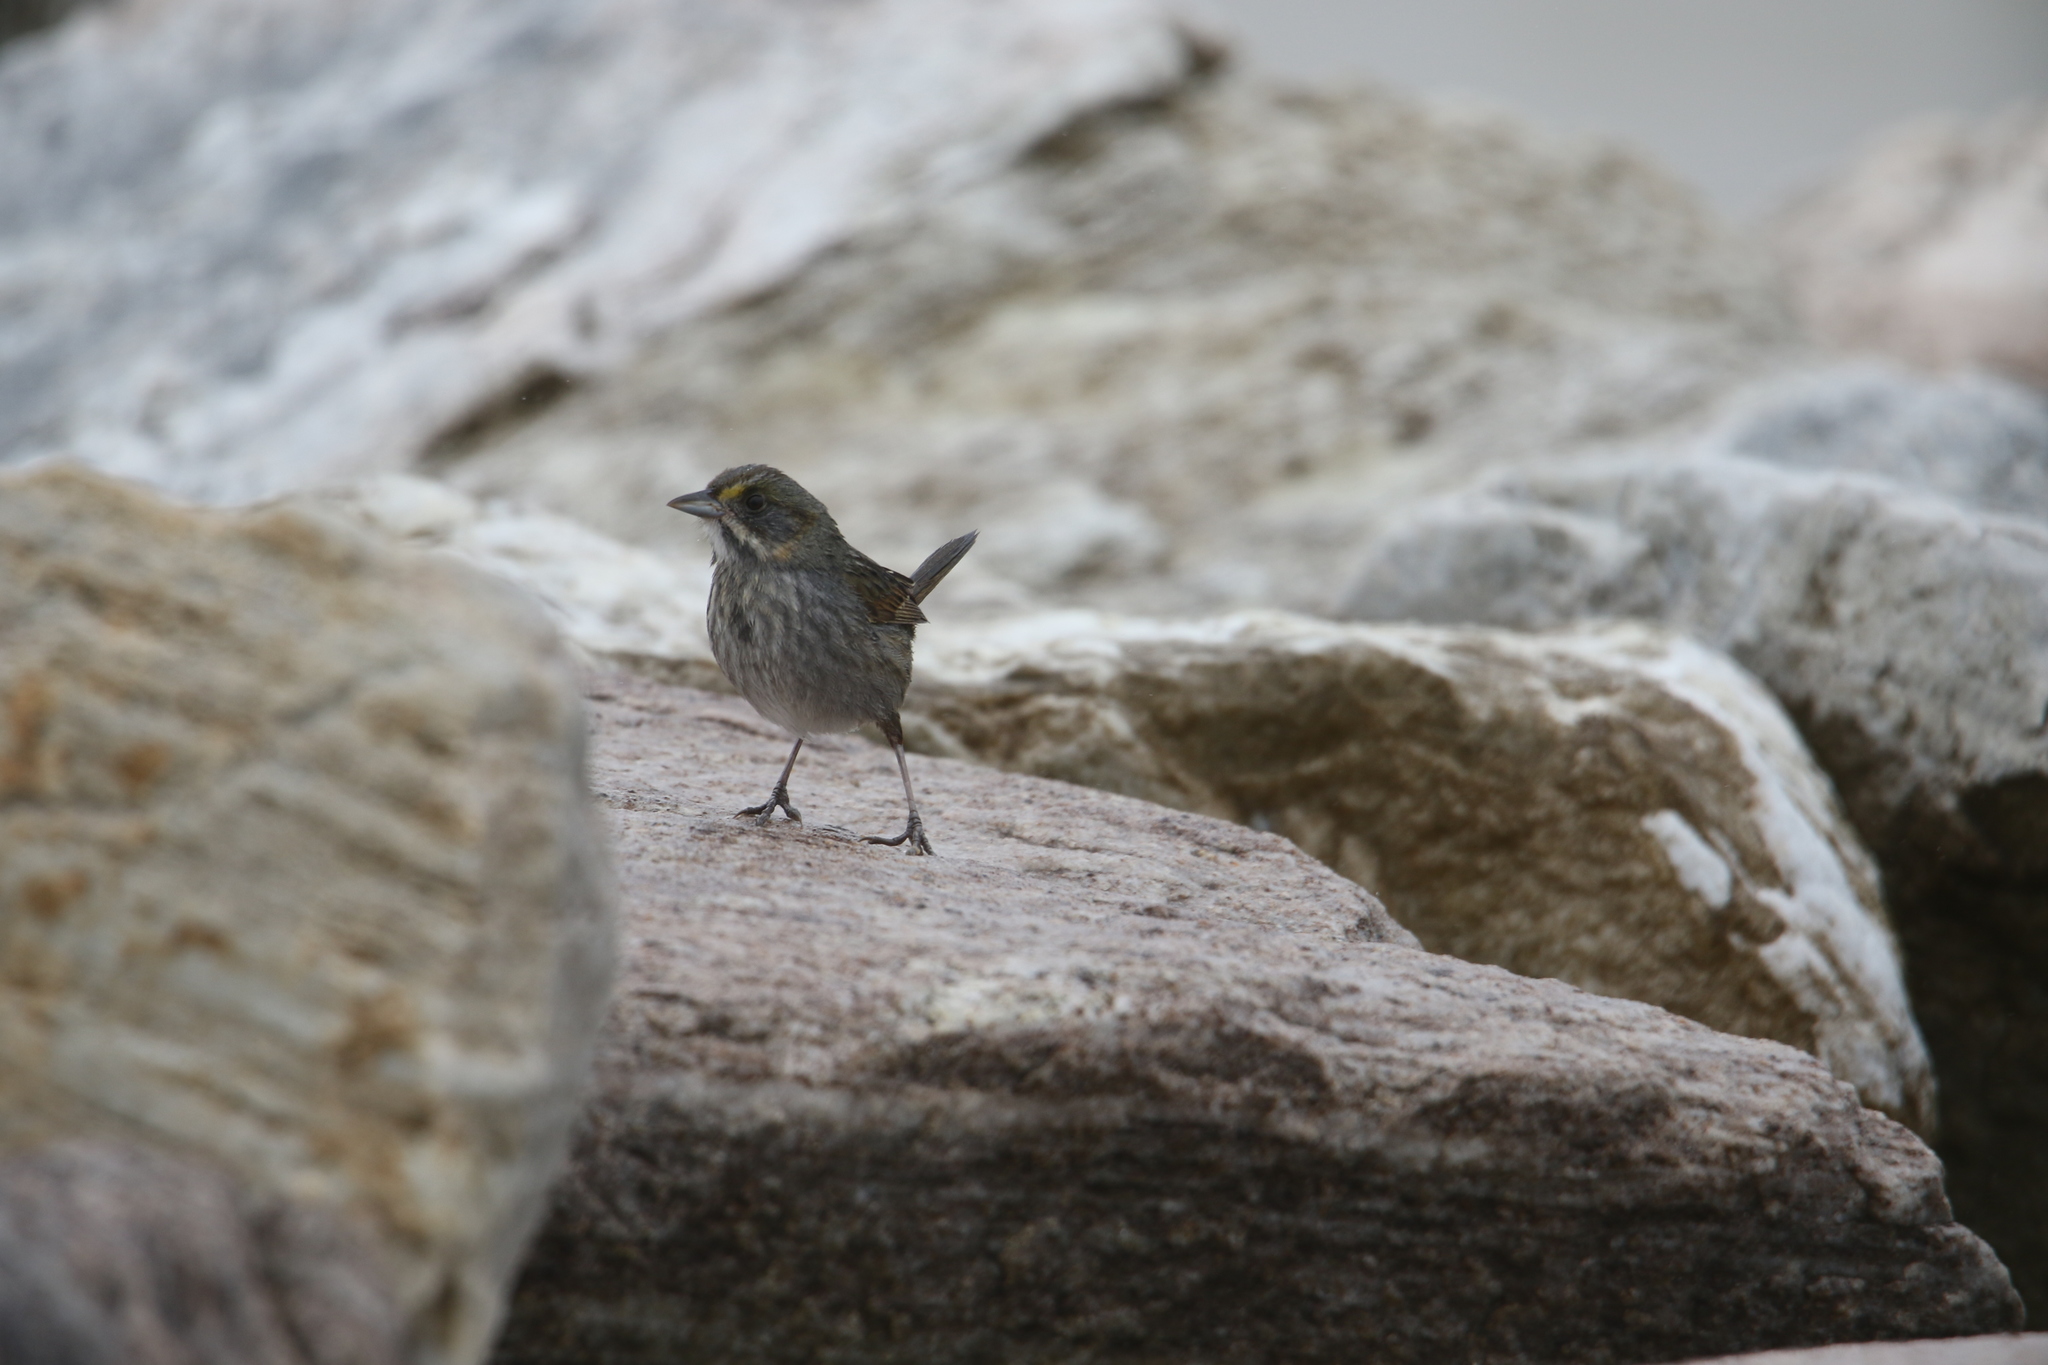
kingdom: Animalia
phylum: Chordata
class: Aves
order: Passeriformes
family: Passerellidae
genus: Ammospiza
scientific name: Ammospiza maritima
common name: Seaside sparrow
